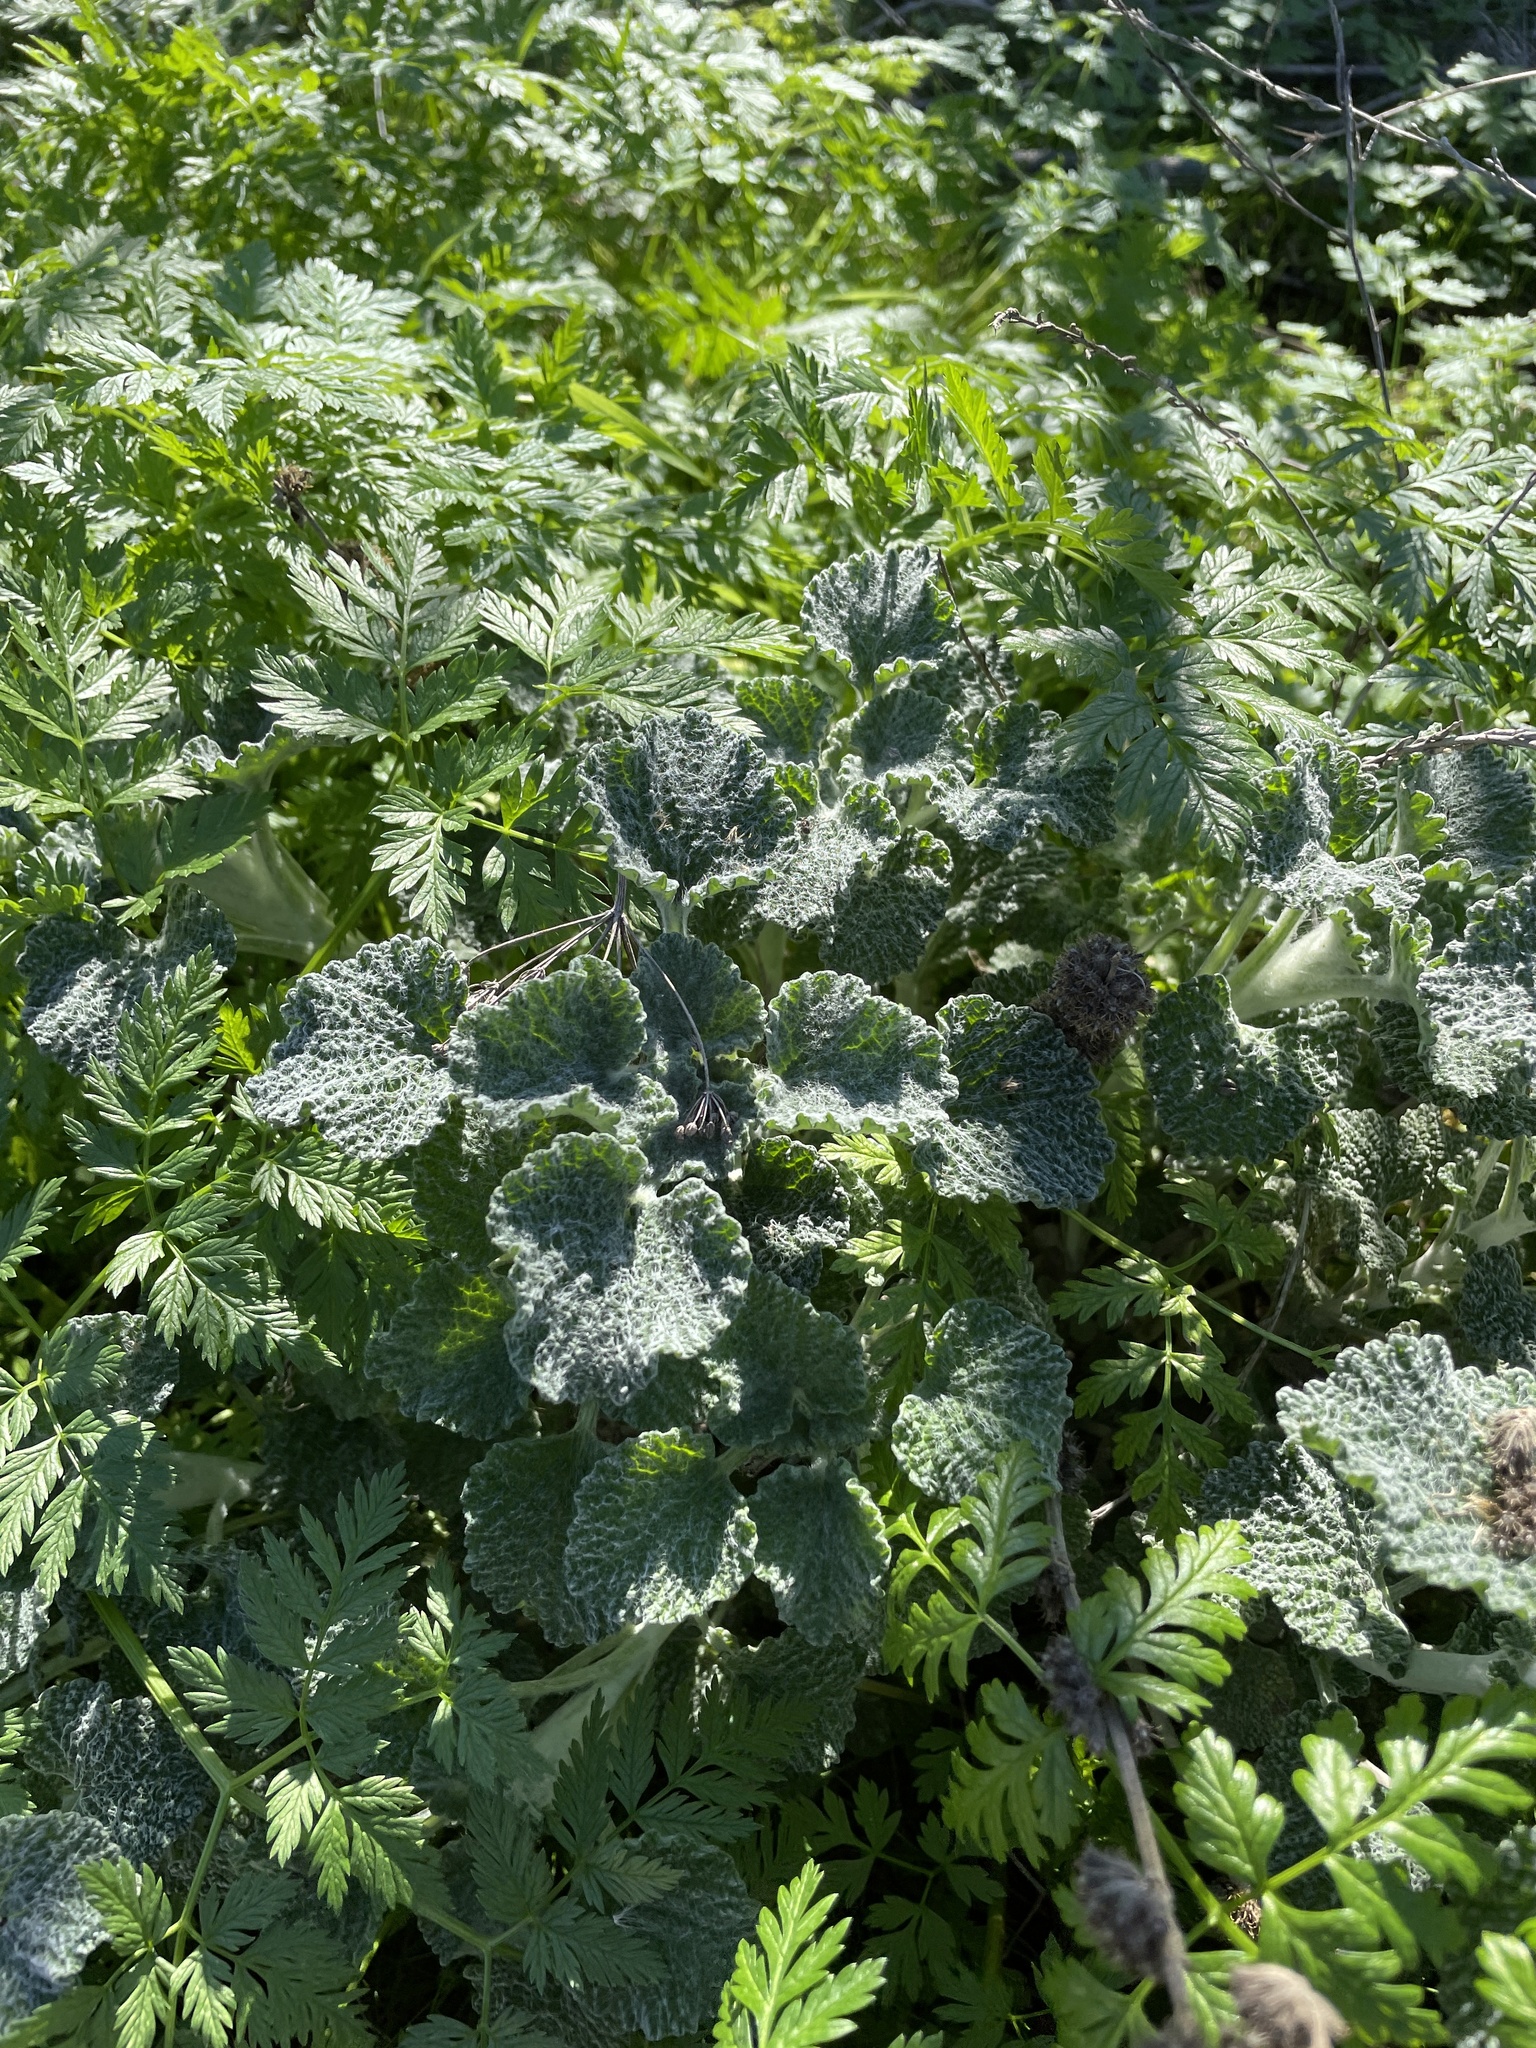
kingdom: Plantae
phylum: Tracheophyta
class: Magnoliopsida
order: Lamiales
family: Lamiaceae
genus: Marrubium
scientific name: Marrubium vulgare
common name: Horehound
